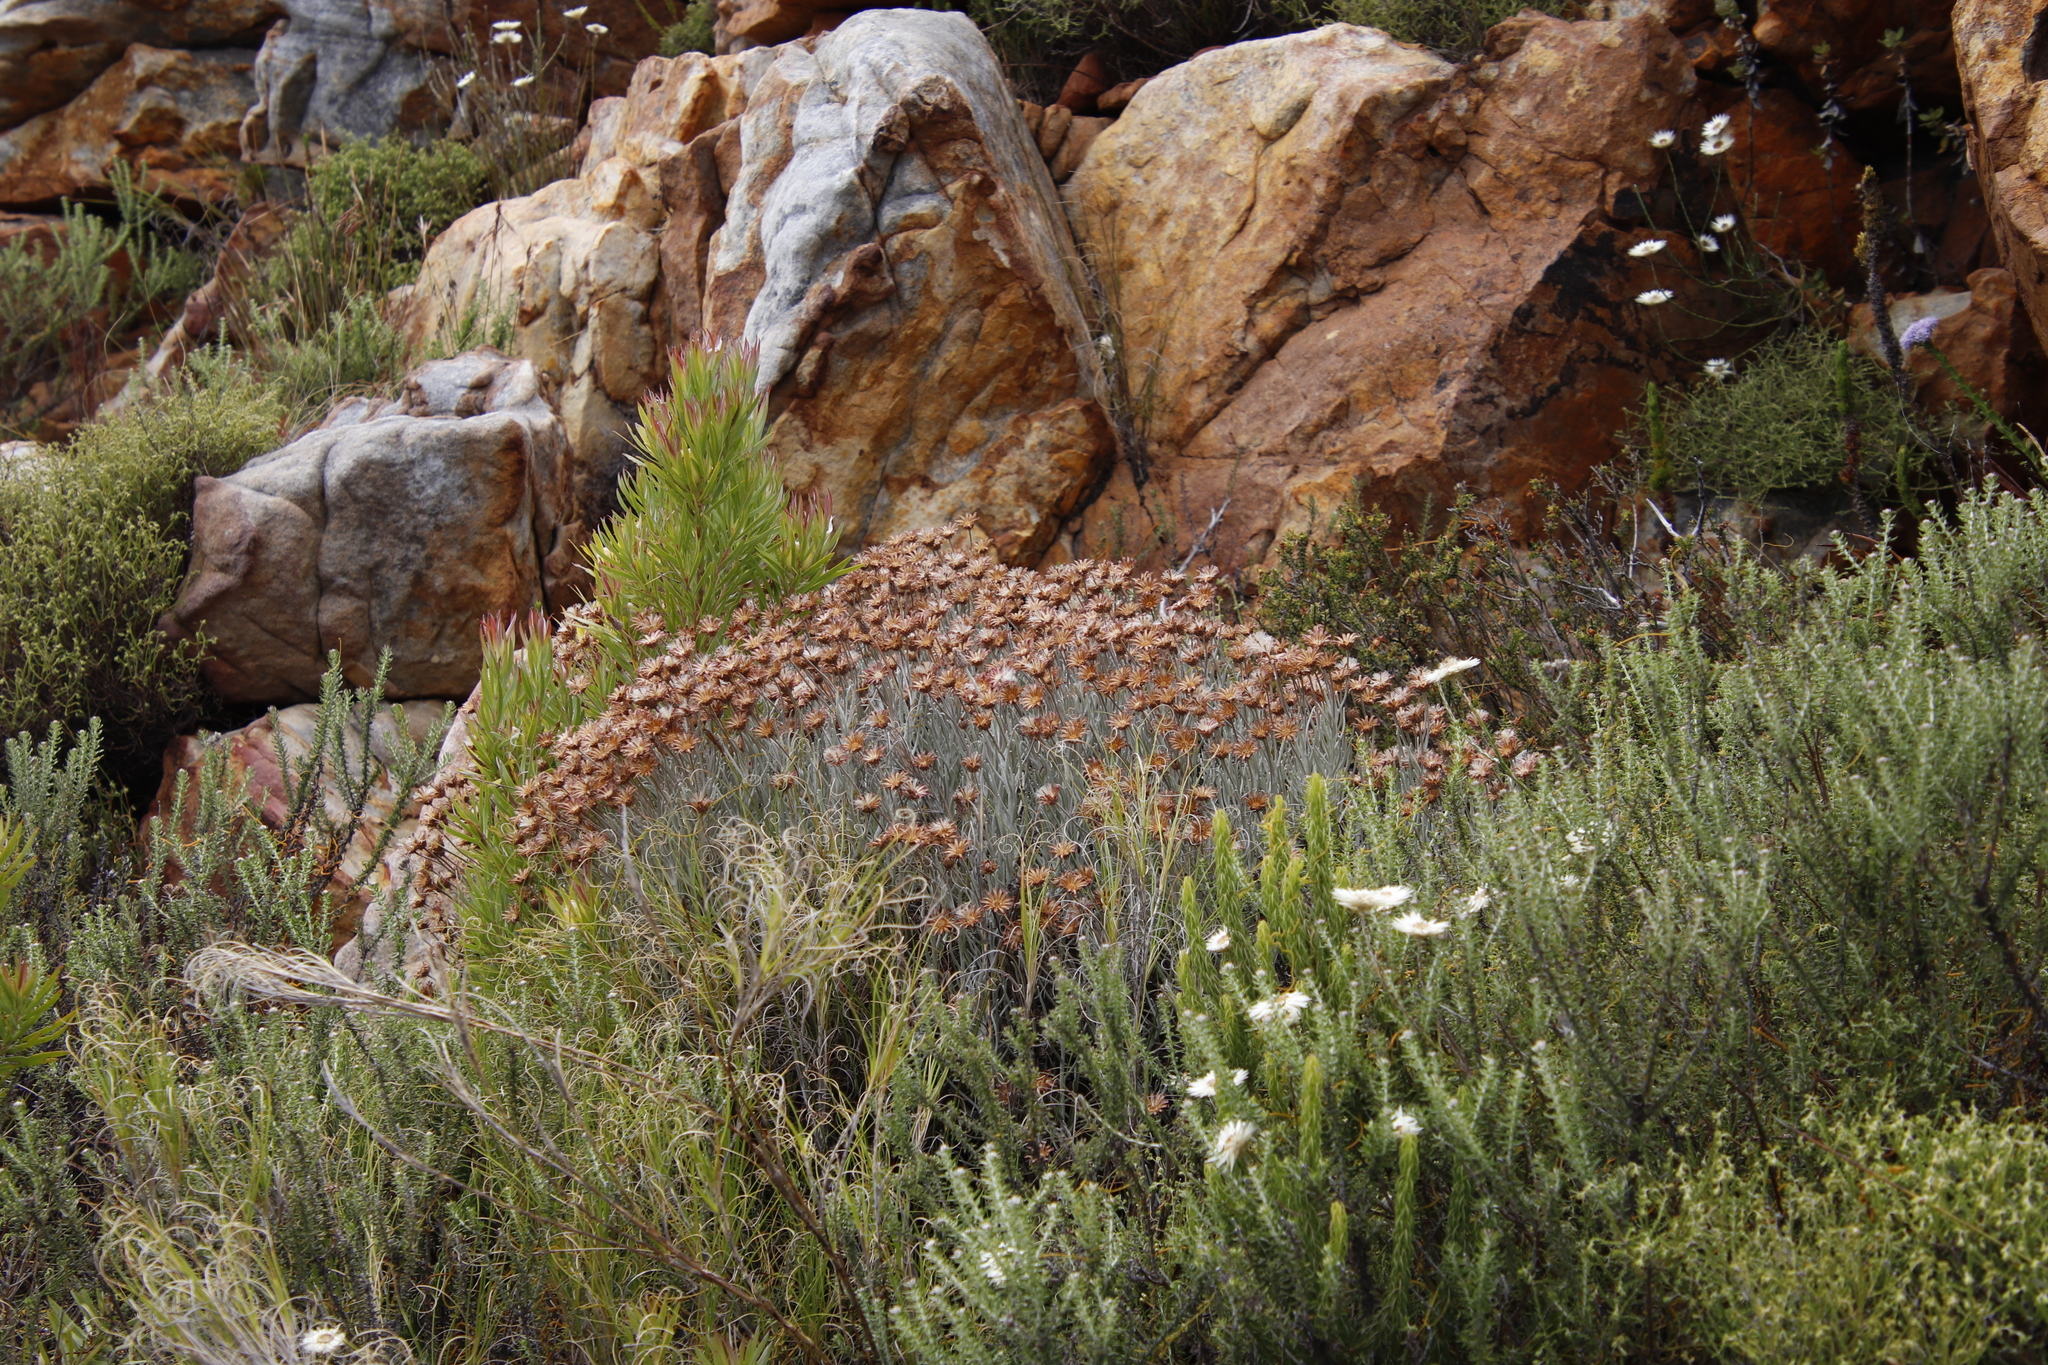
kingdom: Plantae
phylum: Tracheophyta
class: Magnoliopsida
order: Asterales
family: Asteraceae
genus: Syncarpha
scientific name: Syncarpha gnaphaloides
